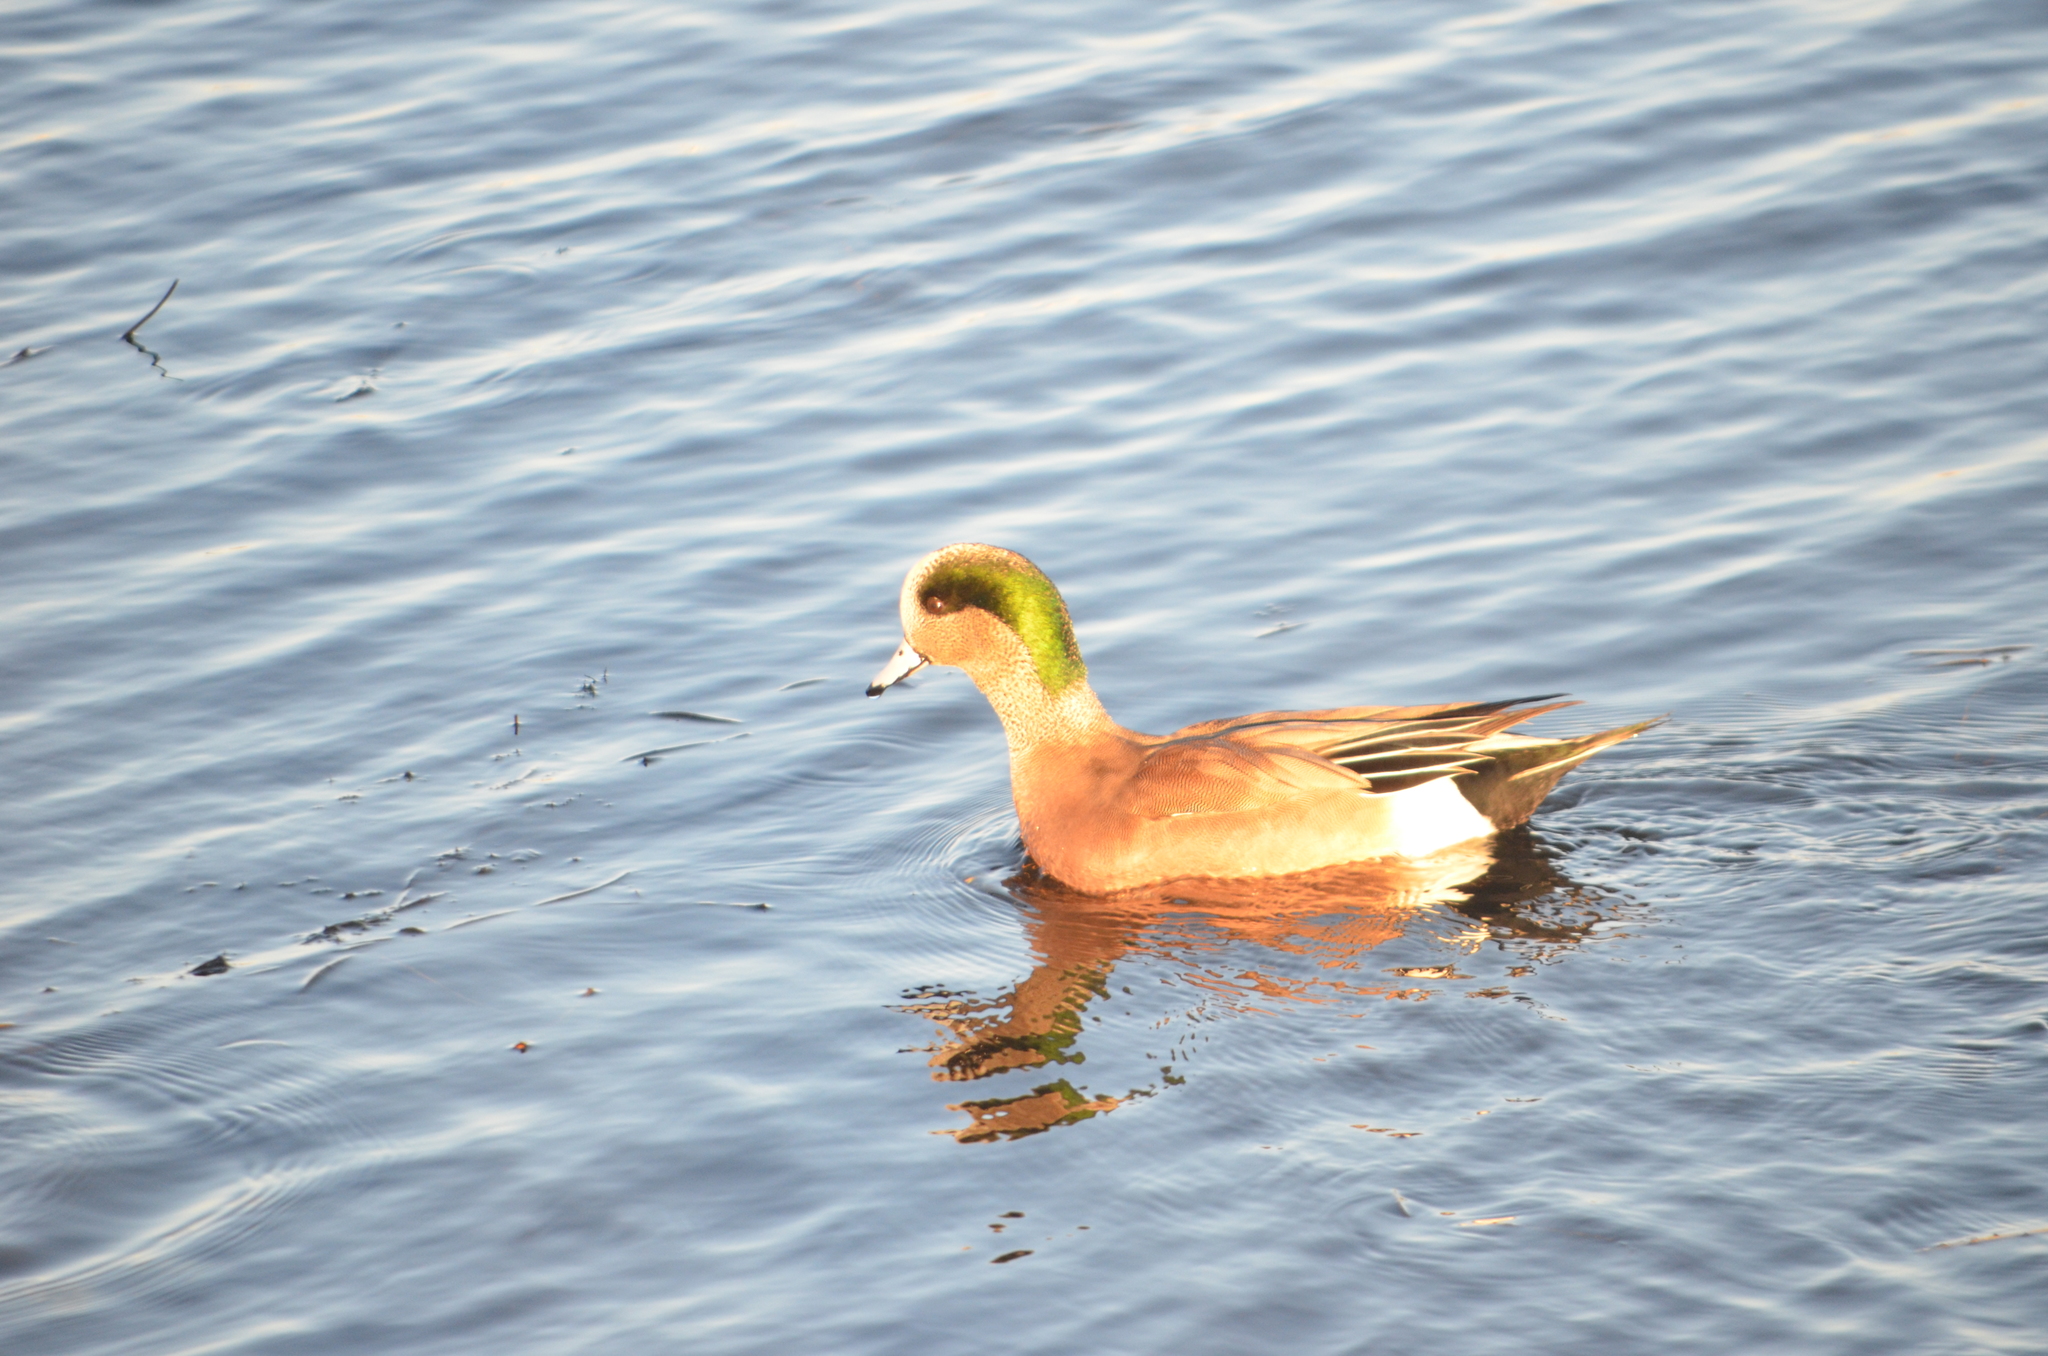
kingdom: Animalia
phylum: Chordata
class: Aves
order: Anseriformes
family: Anatidae
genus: Mareca
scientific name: Mareca americana
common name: American wigeon
